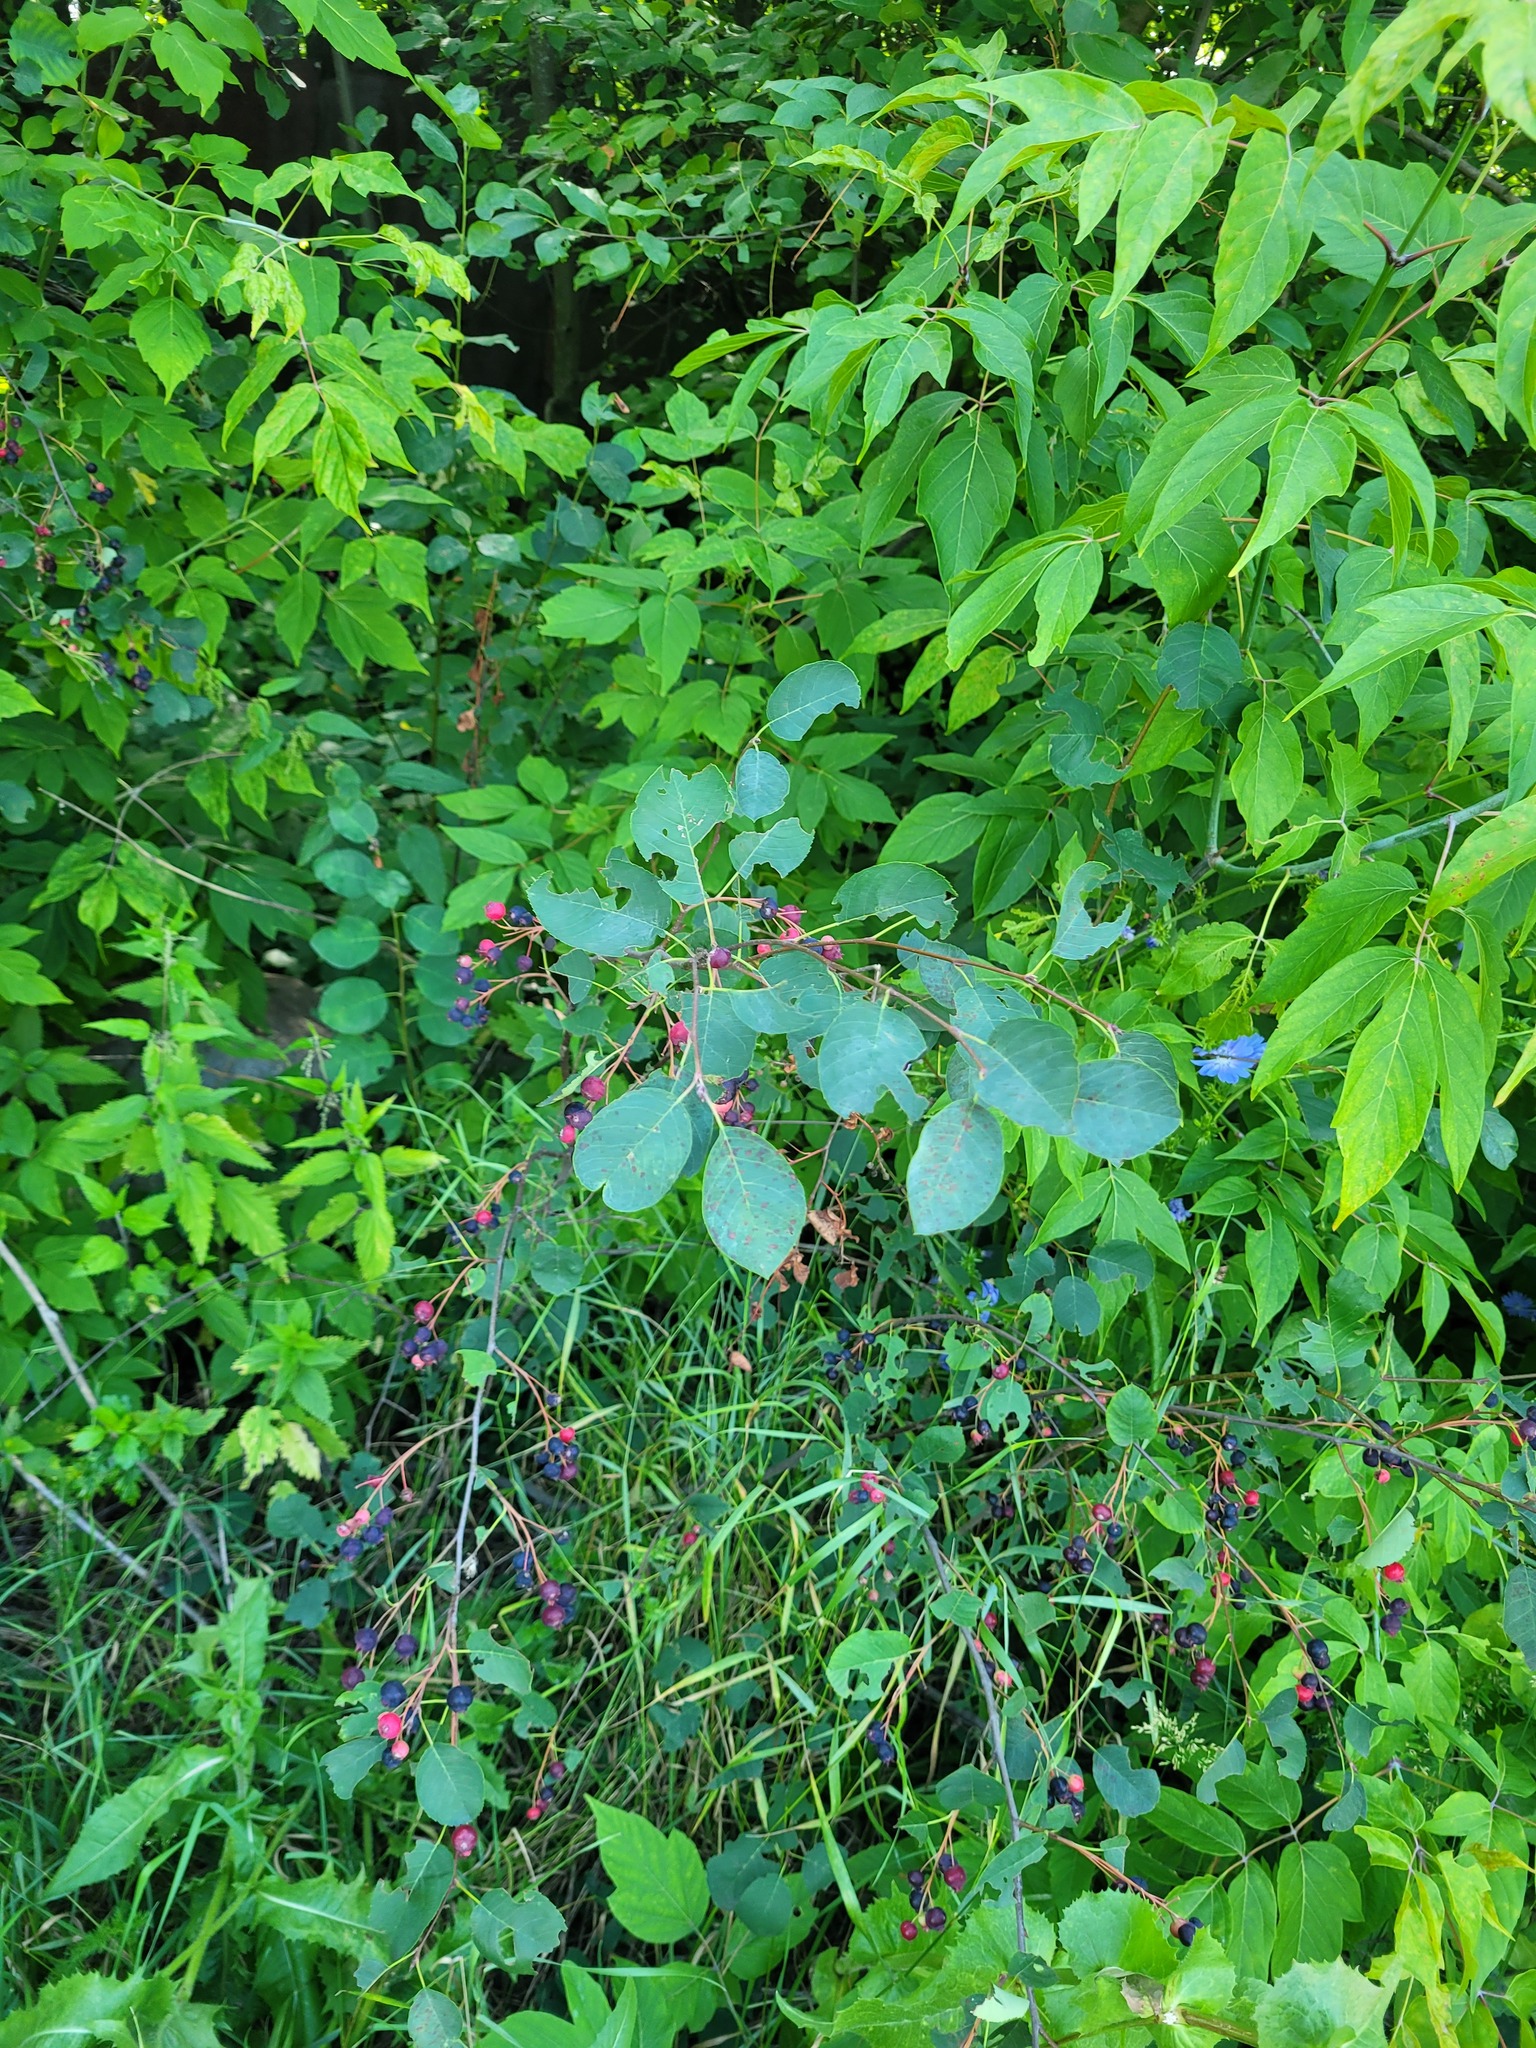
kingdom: Plantae
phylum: Tracheophyta
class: Magnoliopsida
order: Rosales
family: Rosaceae
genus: Amelanchier
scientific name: Amelanchier
